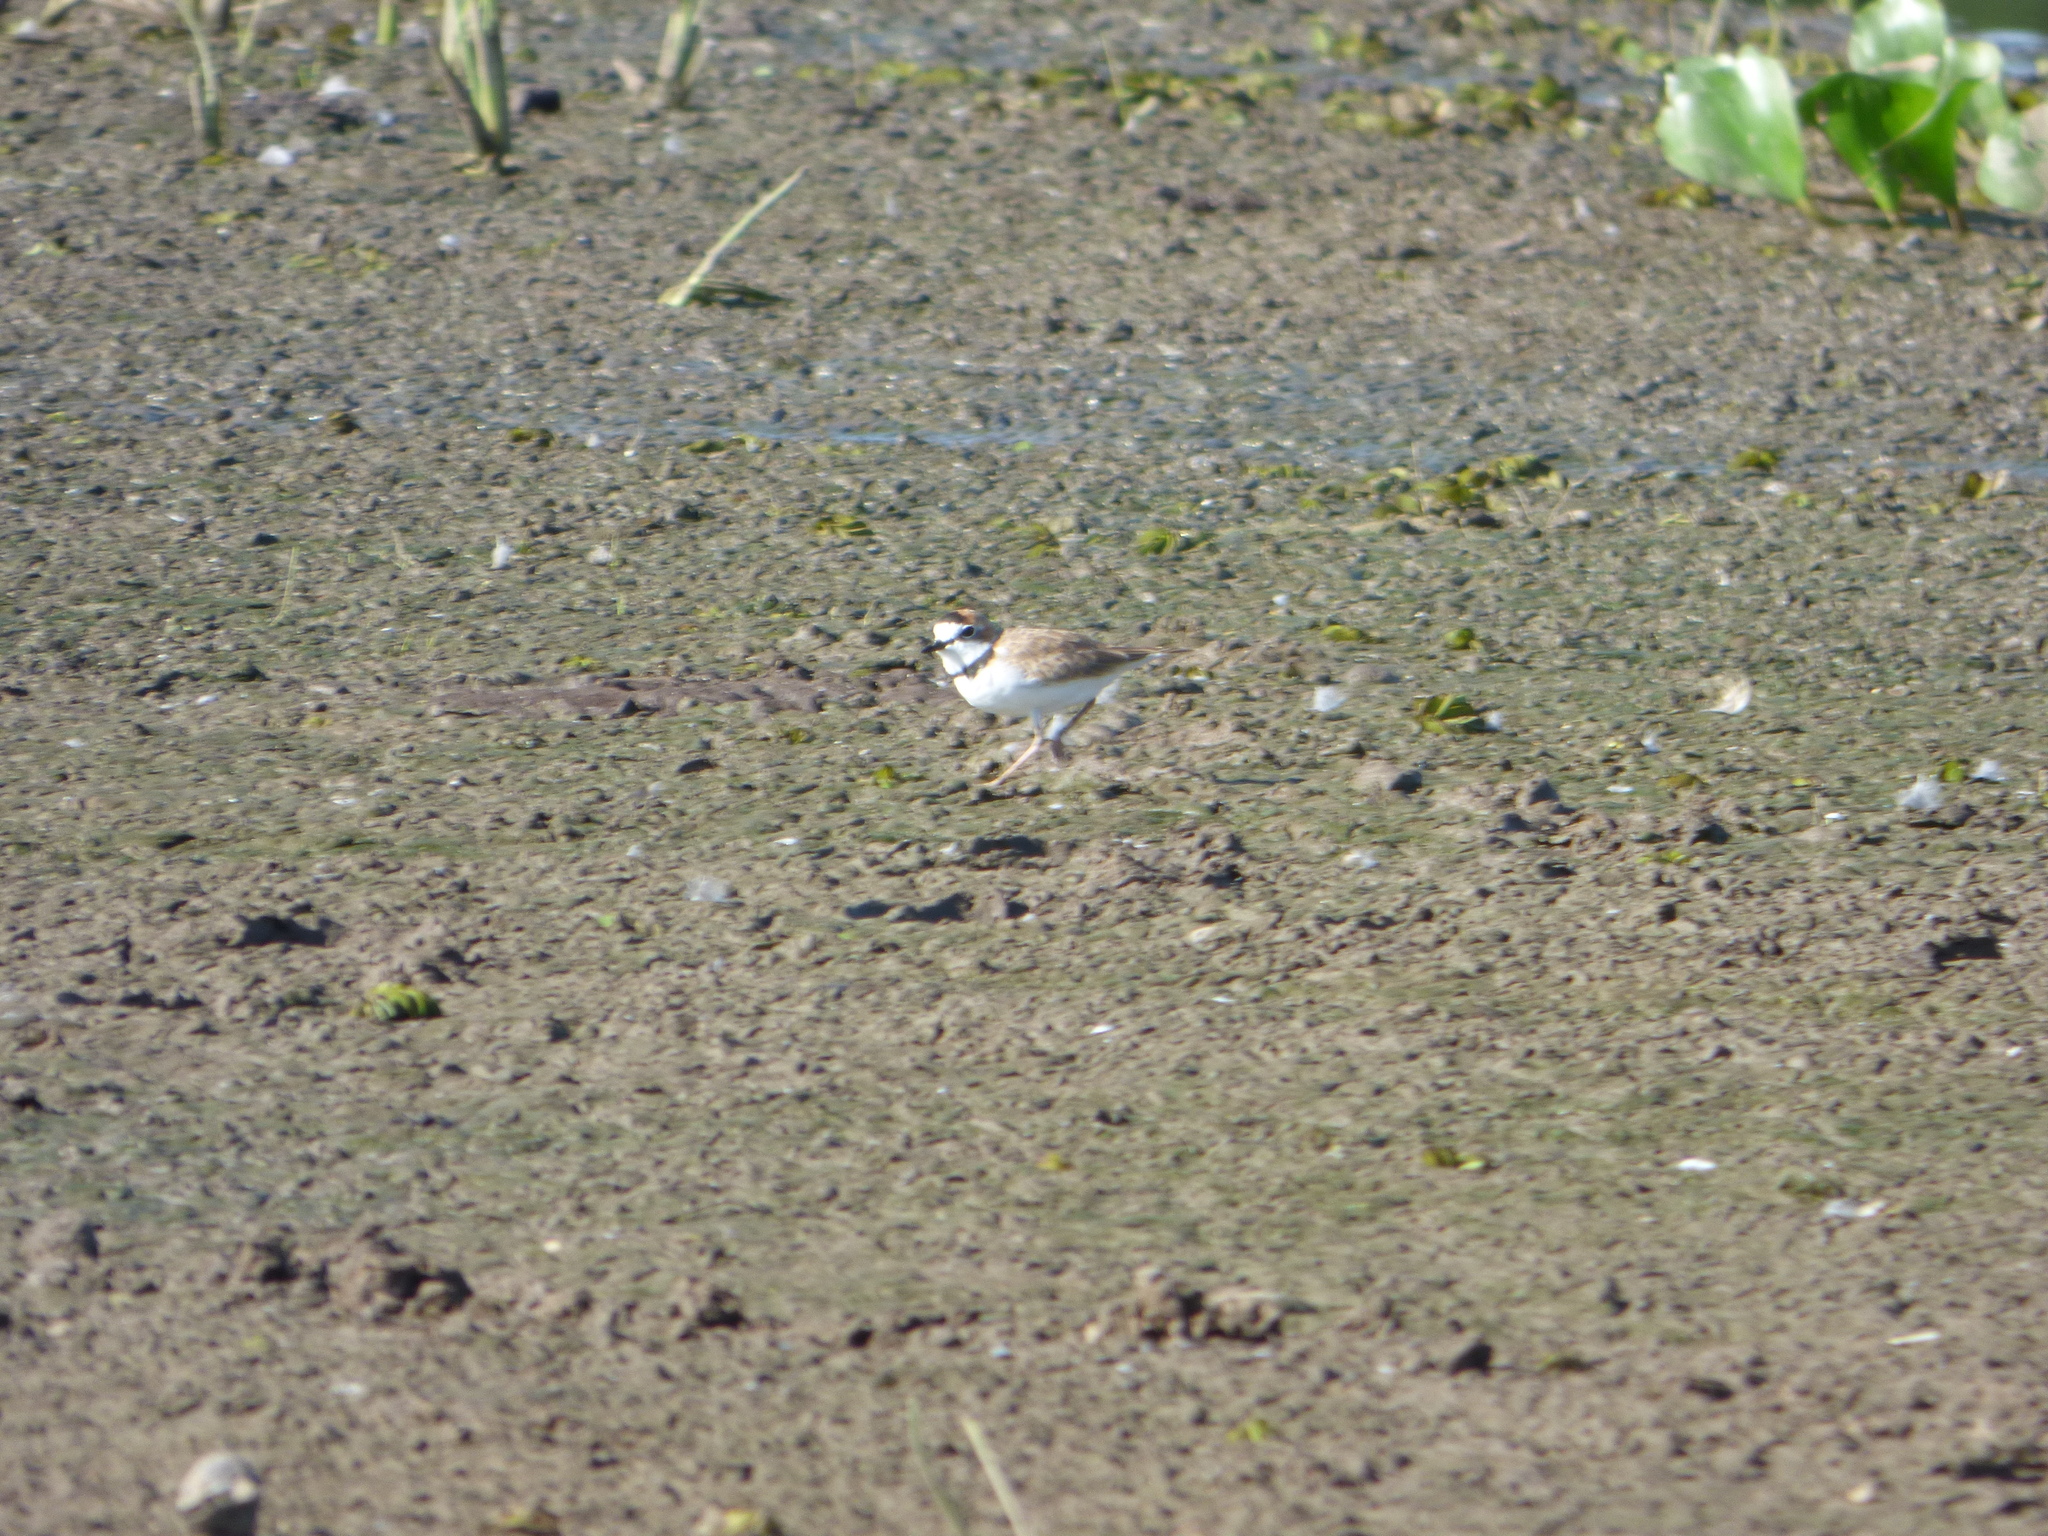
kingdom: Animalia
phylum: Chordata
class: Aves
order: Charadriiformes
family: Charadriidae
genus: Anarhynchus
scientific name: Anarhynchus
